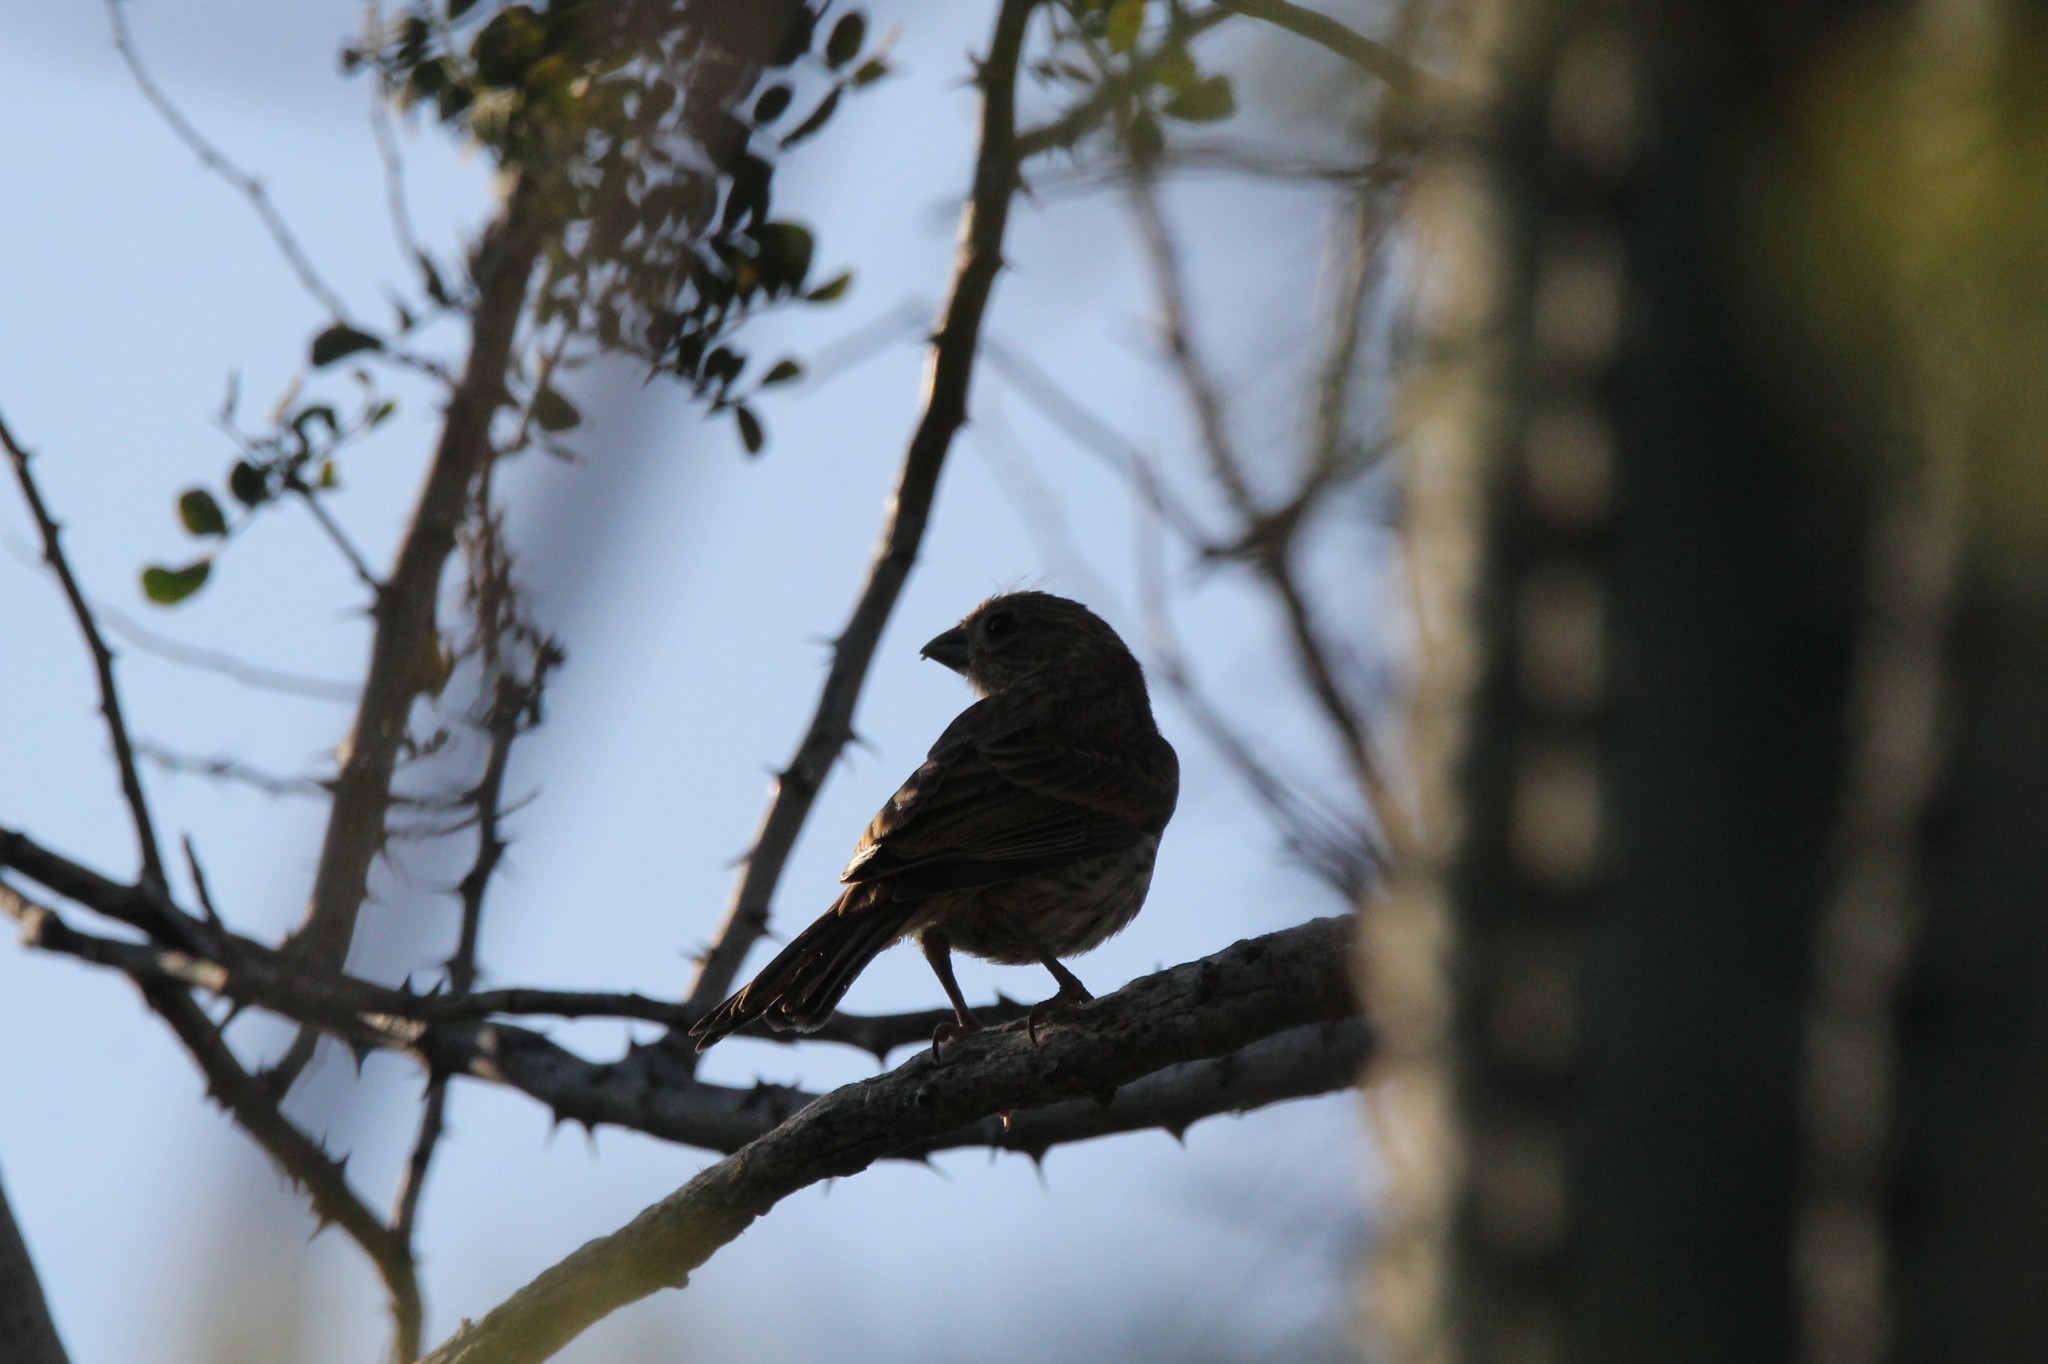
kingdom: Animalia
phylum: Chordata
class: Aves
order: Passeriformes
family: Fringillidae
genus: Haemorhous
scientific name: Haemorhous mexicanus
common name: House finch
